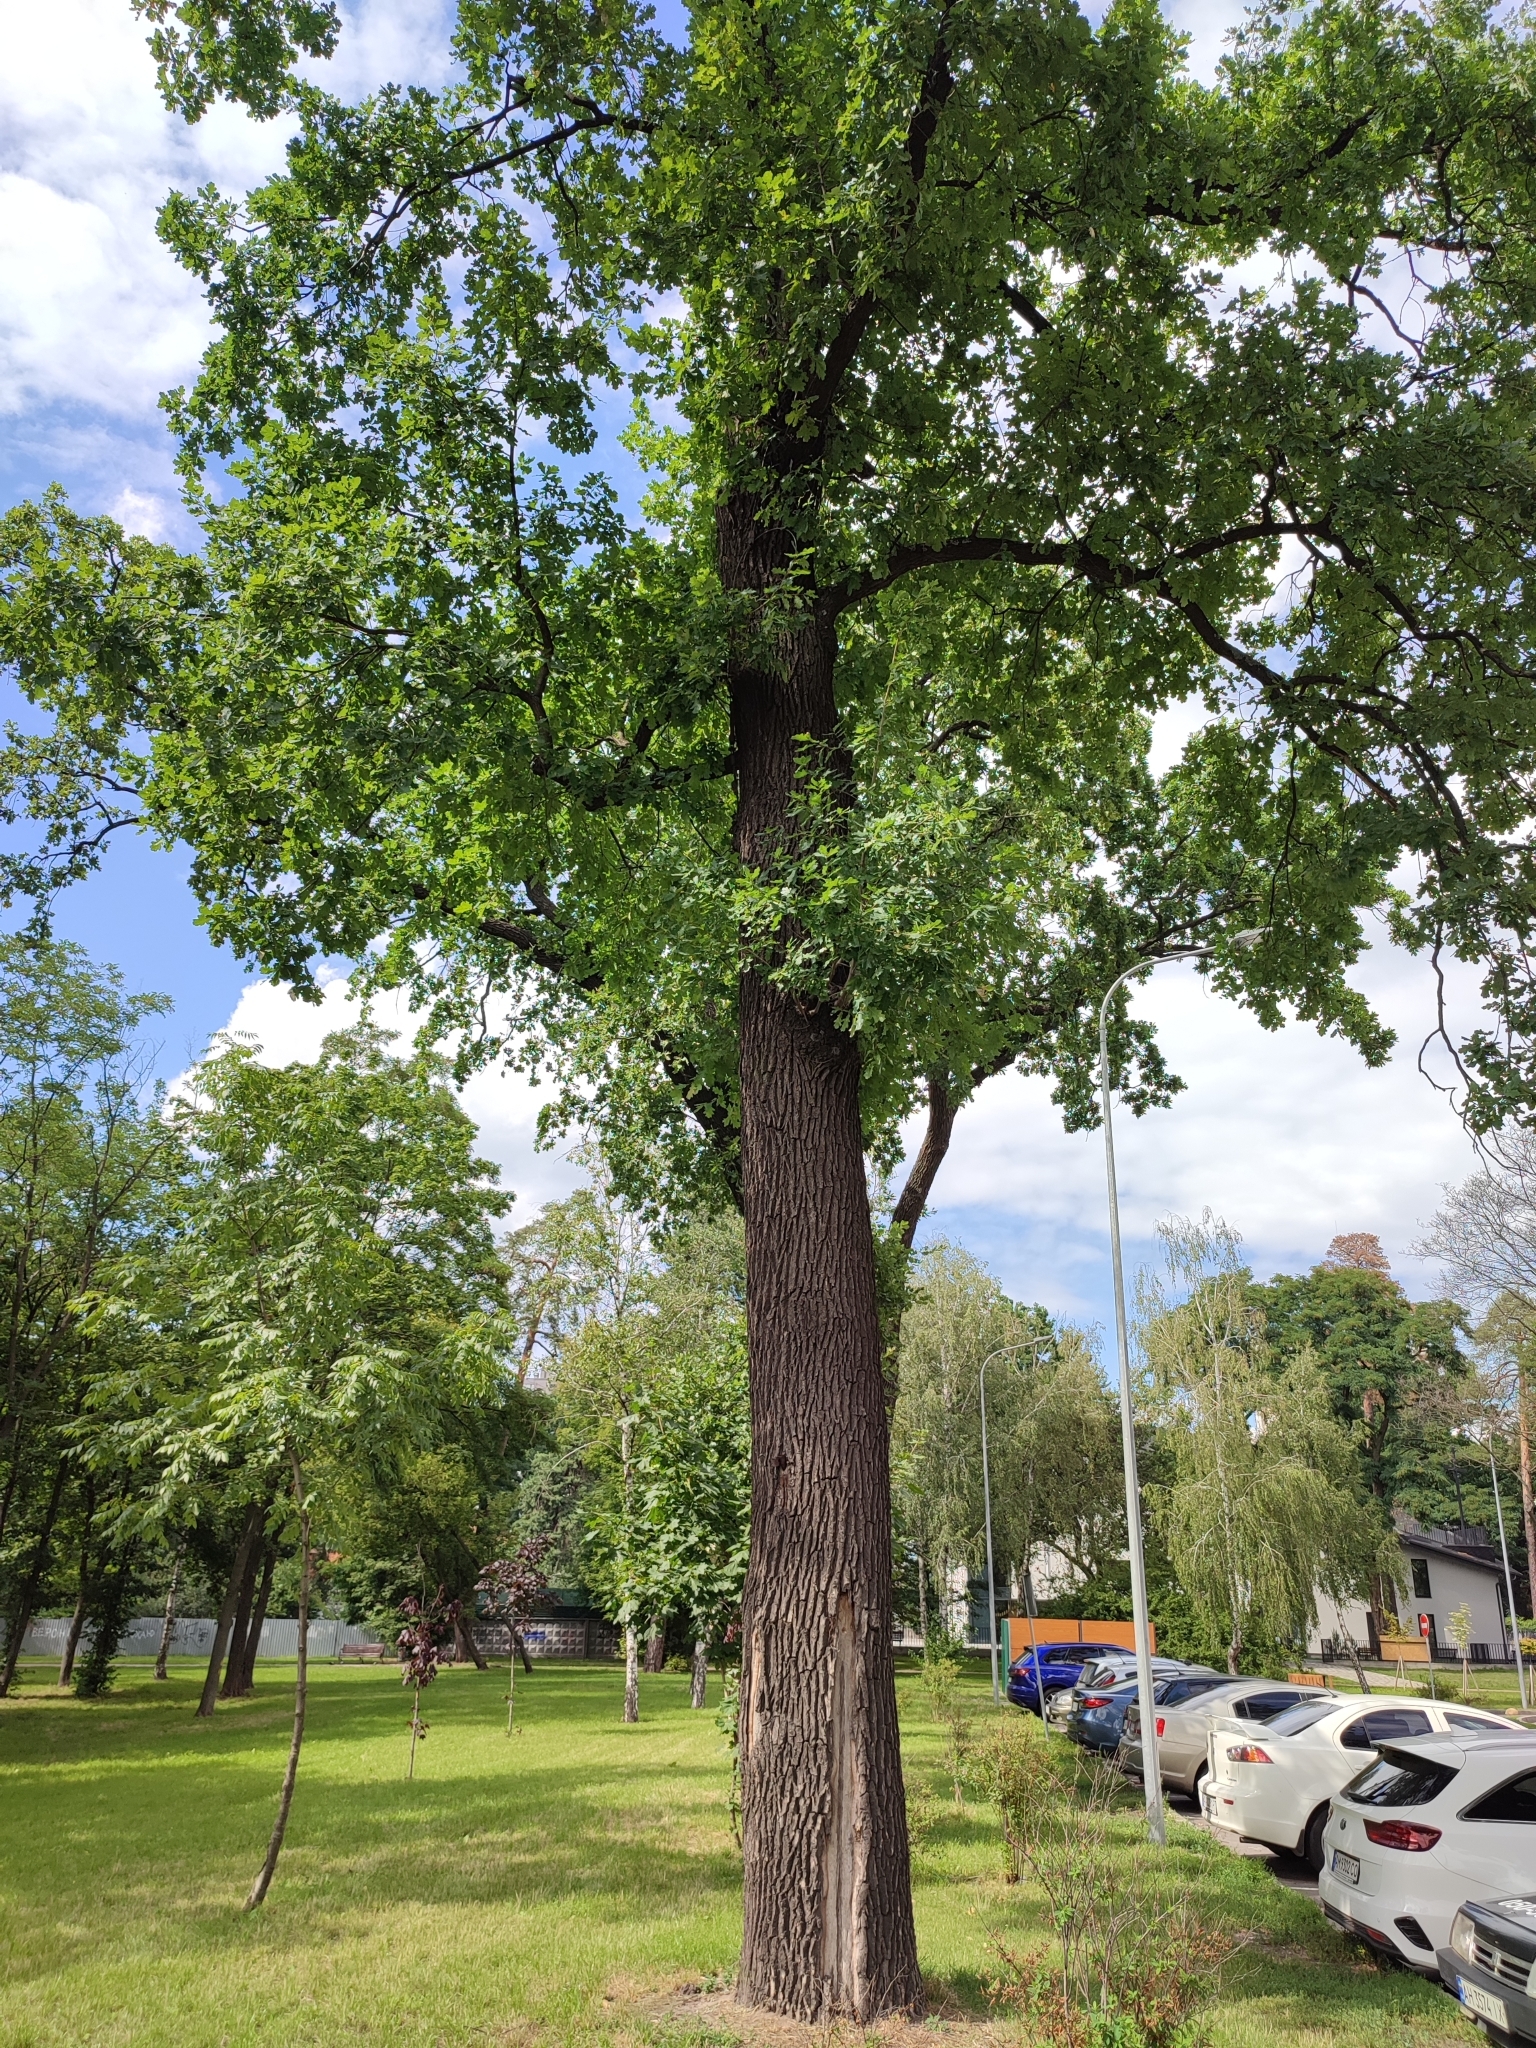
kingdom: Plantae
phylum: Tracheophyta
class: Magnoliopsida
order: Fagales
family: Fagaceae
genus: Quercus
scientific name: Quercus robur
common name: Pedunculate oak
